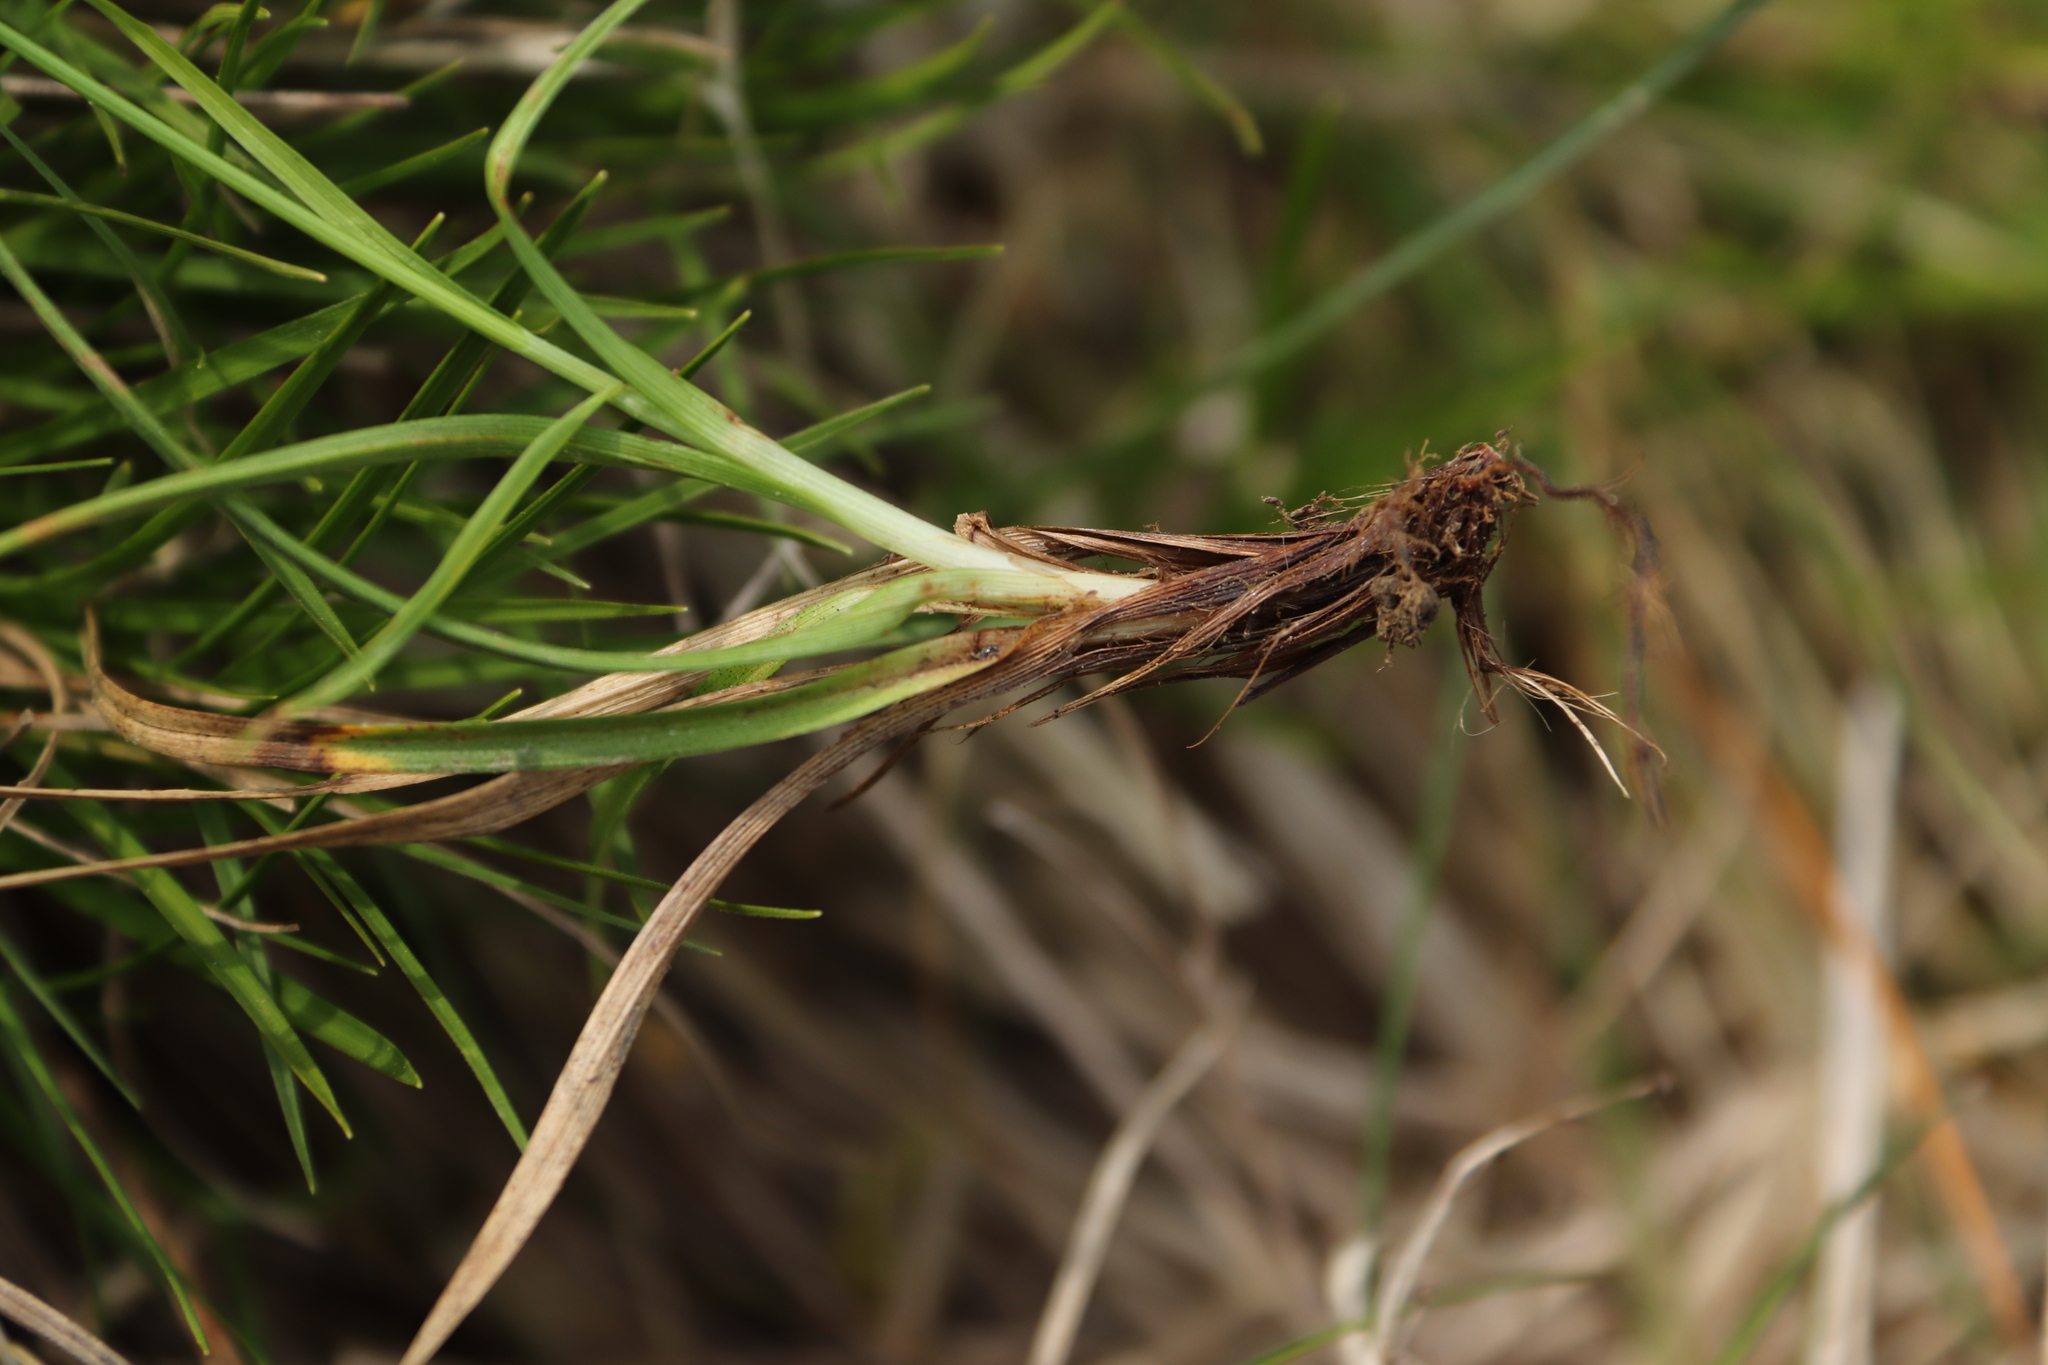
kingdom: Plantae
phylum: Tracheophyta
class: Liliopsida
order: Poales
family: Cyperaceae
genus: Carex
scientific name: Carex caryophyllea
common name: Spring sedge
